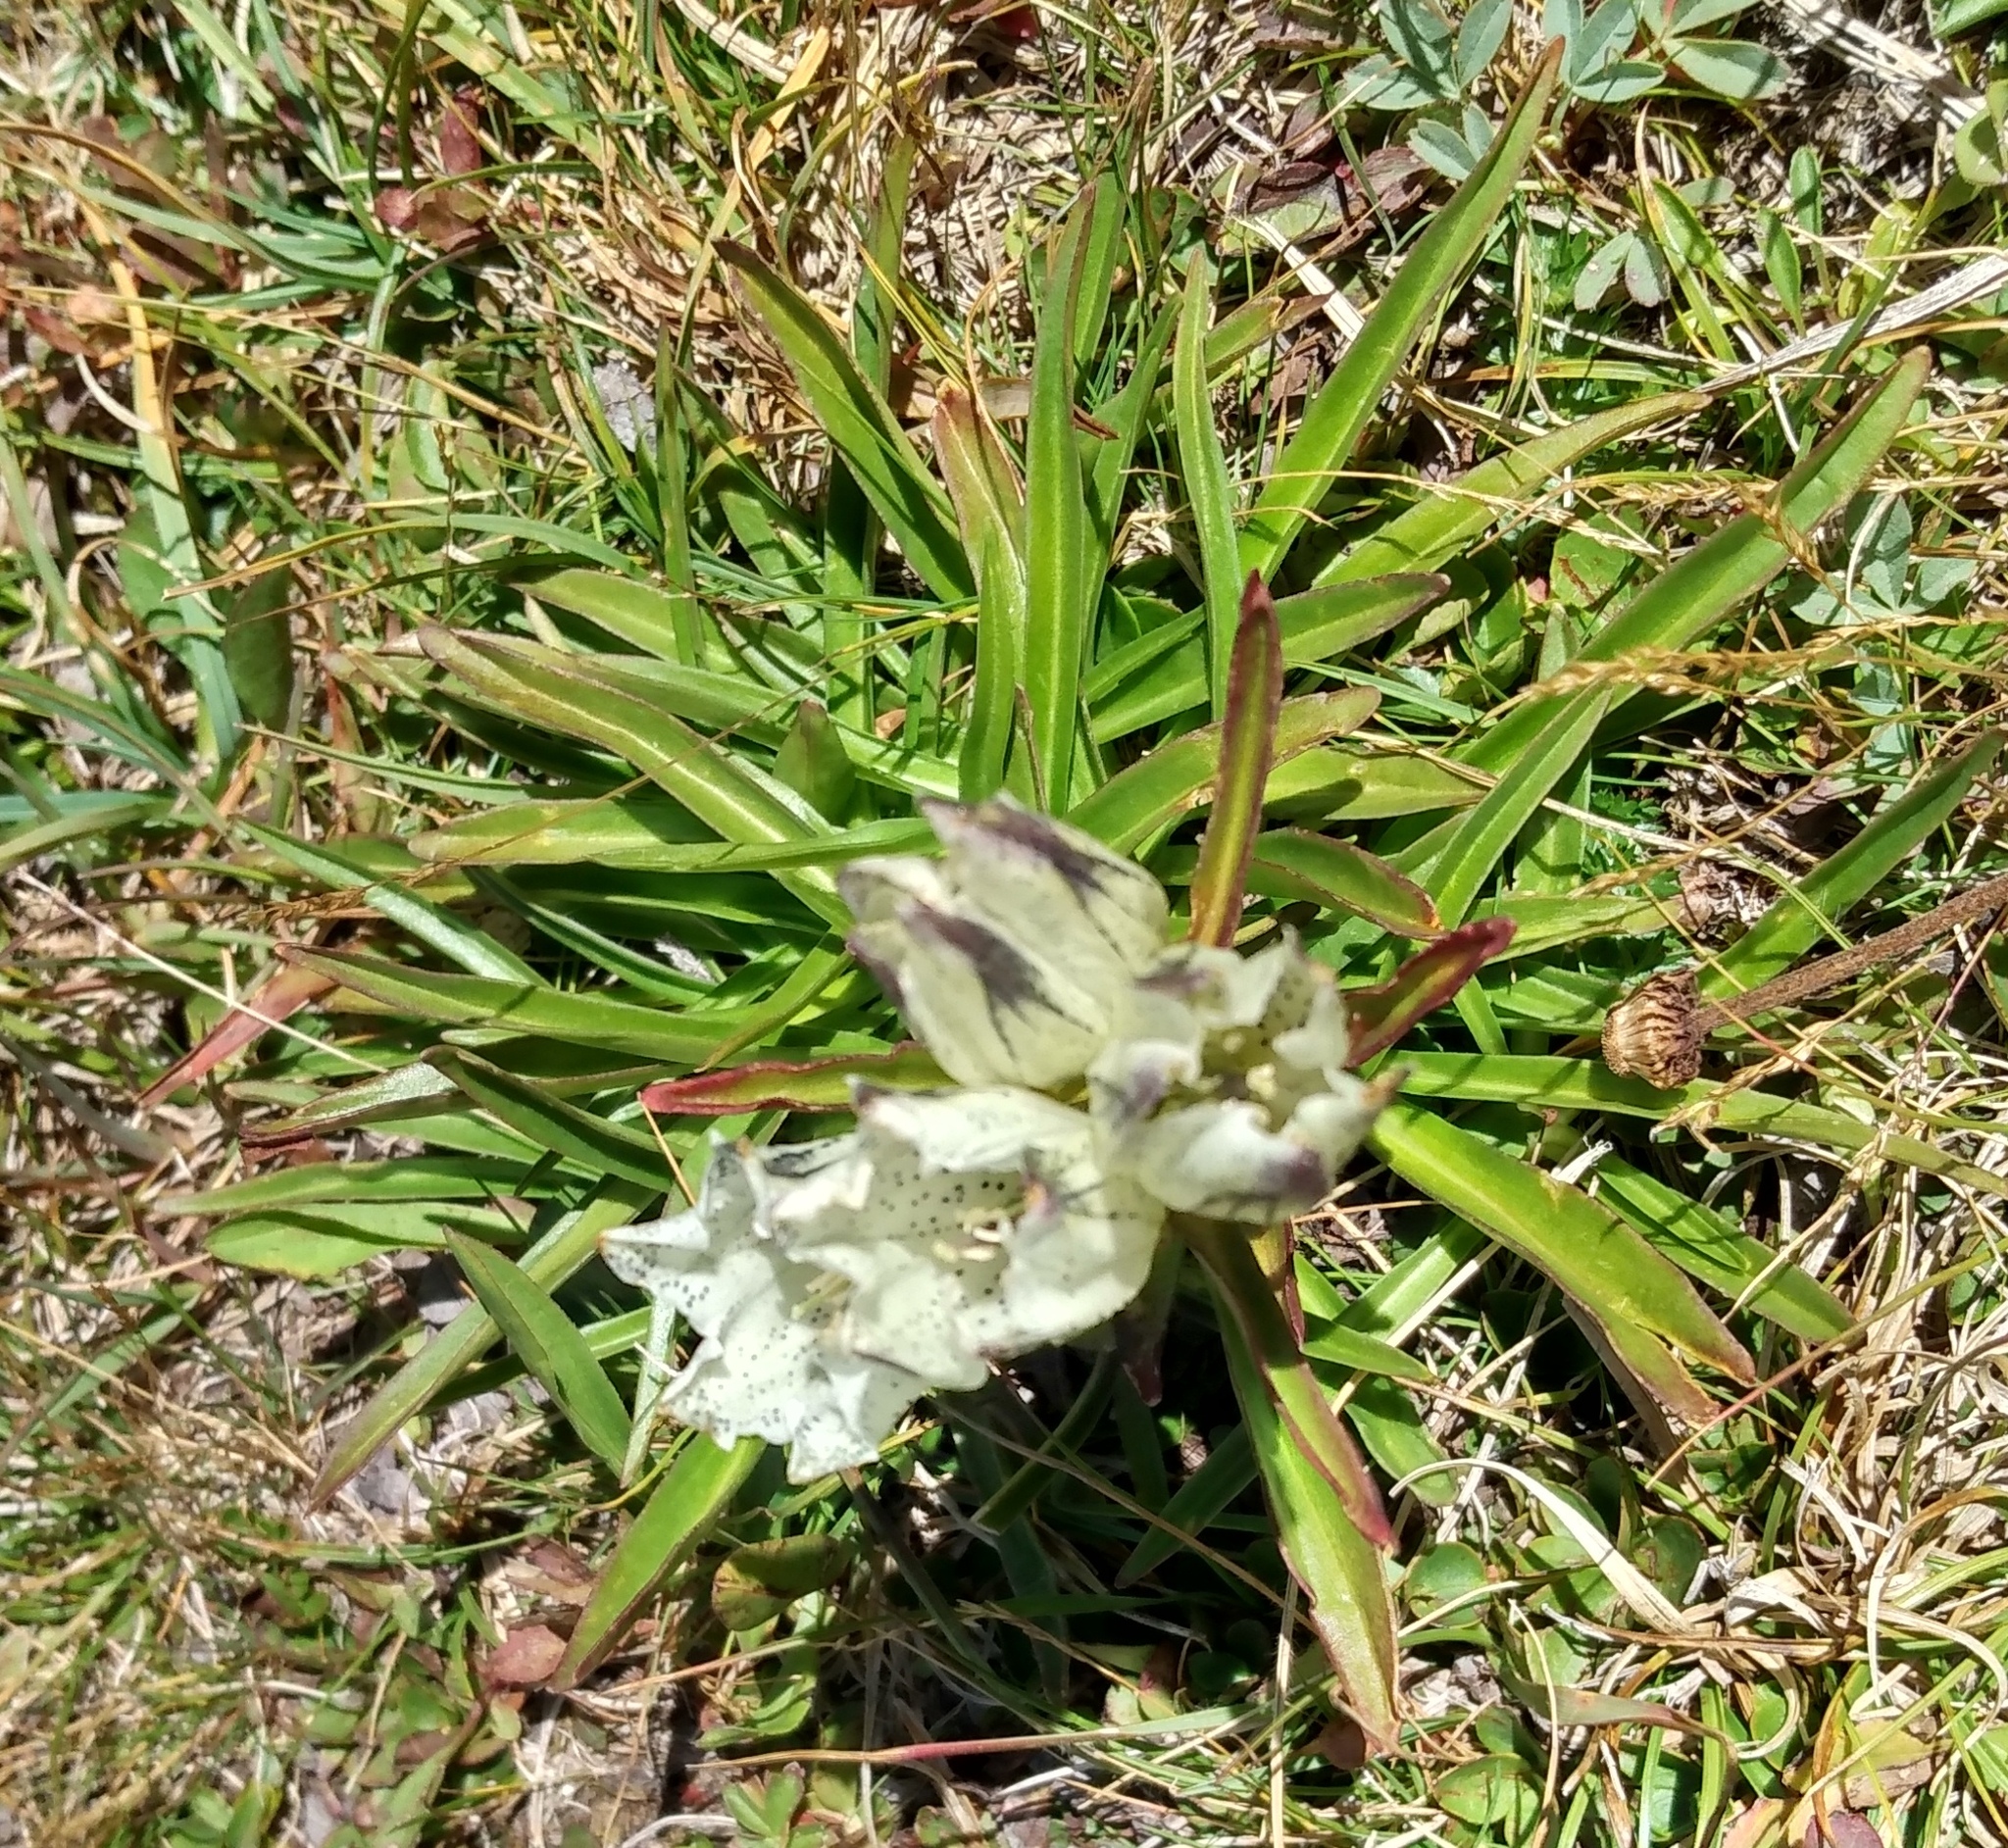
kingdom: Plantae
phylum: Tracheophyta
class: Magnoliopsida
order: Gentianales
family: Gentianaceae
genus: Gentiana
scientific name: Gentiana algida
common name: Arctic gentian
